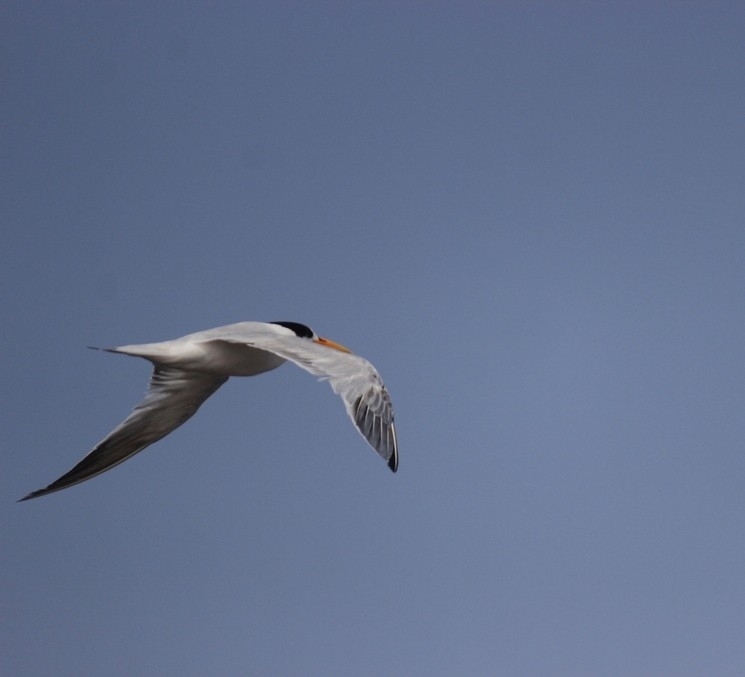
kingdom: Animalia
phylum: Chordata
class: Aves
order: Charadriiformes
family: Laridae
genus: Thalasseus
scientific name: Thalasseus elegans
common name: Elegant tern
